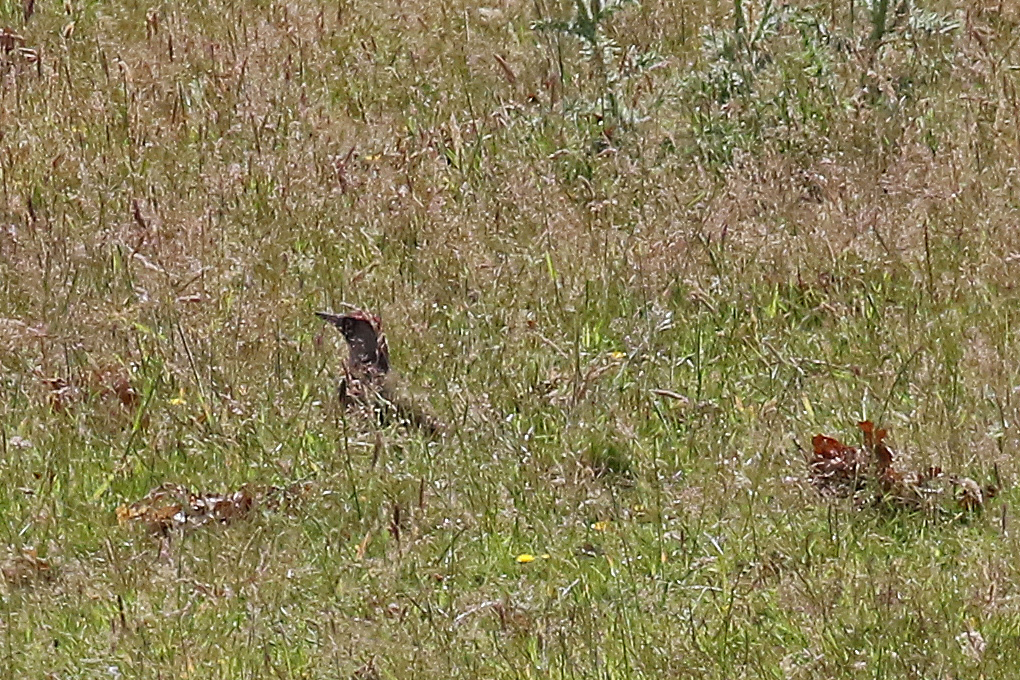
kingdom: Animalia
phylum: Chordata
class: Aves
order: Piciformes
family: Picidae
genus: Picus
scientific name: Picus viridis
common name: European green woodpecker
